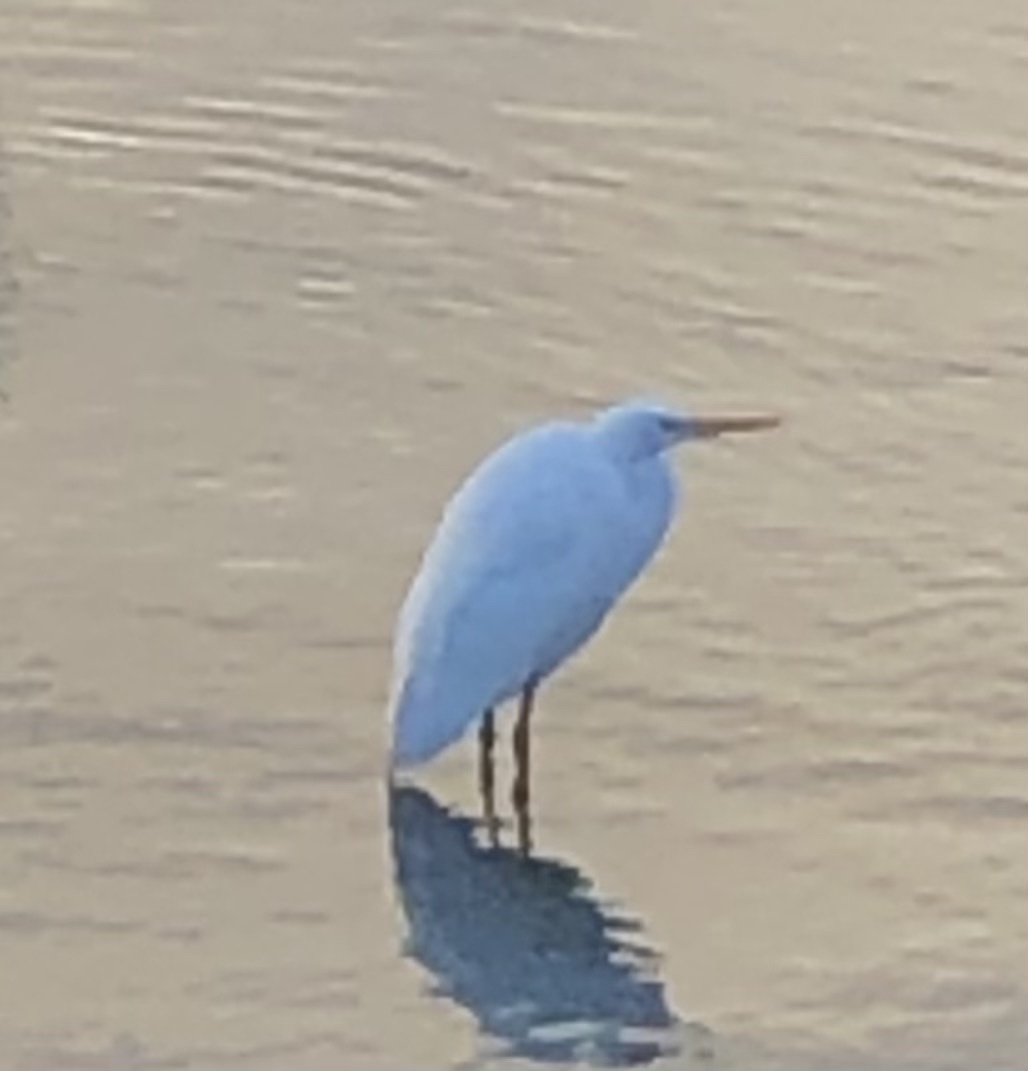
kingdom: Animalia
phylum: Chordata
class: Aves
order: Pelecaniformes
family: Ardeidae
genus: Ardea
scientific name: Ardea alba
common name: Great egret
